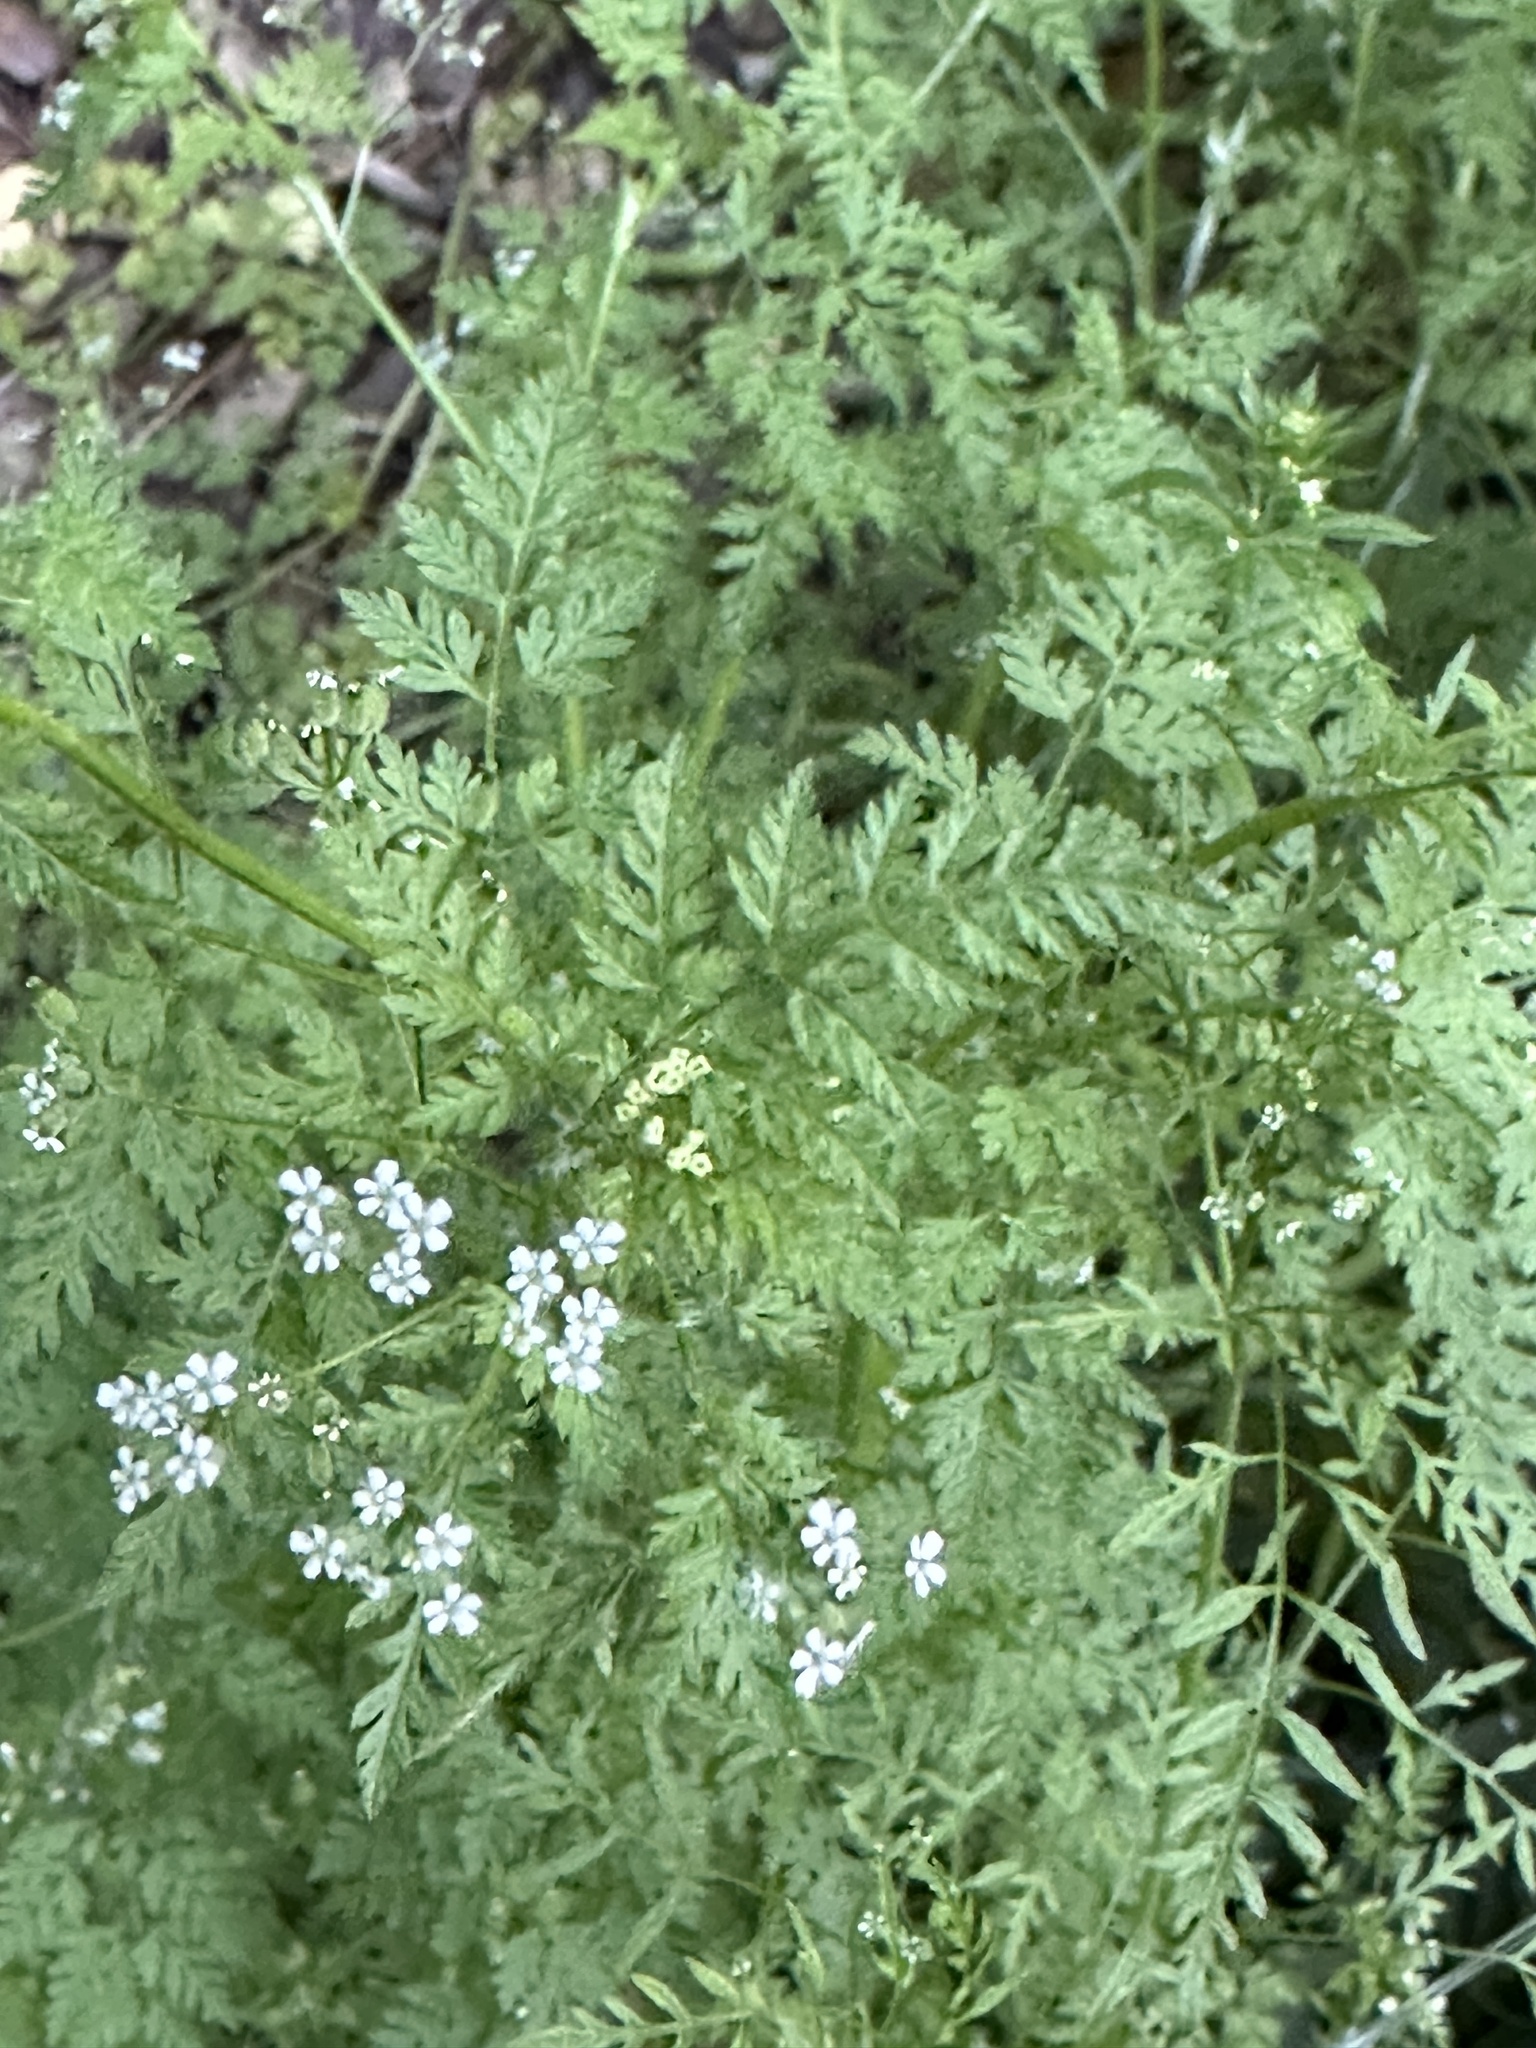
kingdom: Plantae
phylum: Tracheophyta
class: Magnoliopsida
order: Apiales
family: Apiaceae
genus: Conium
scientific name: Conium maculatum
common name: Hemlock
